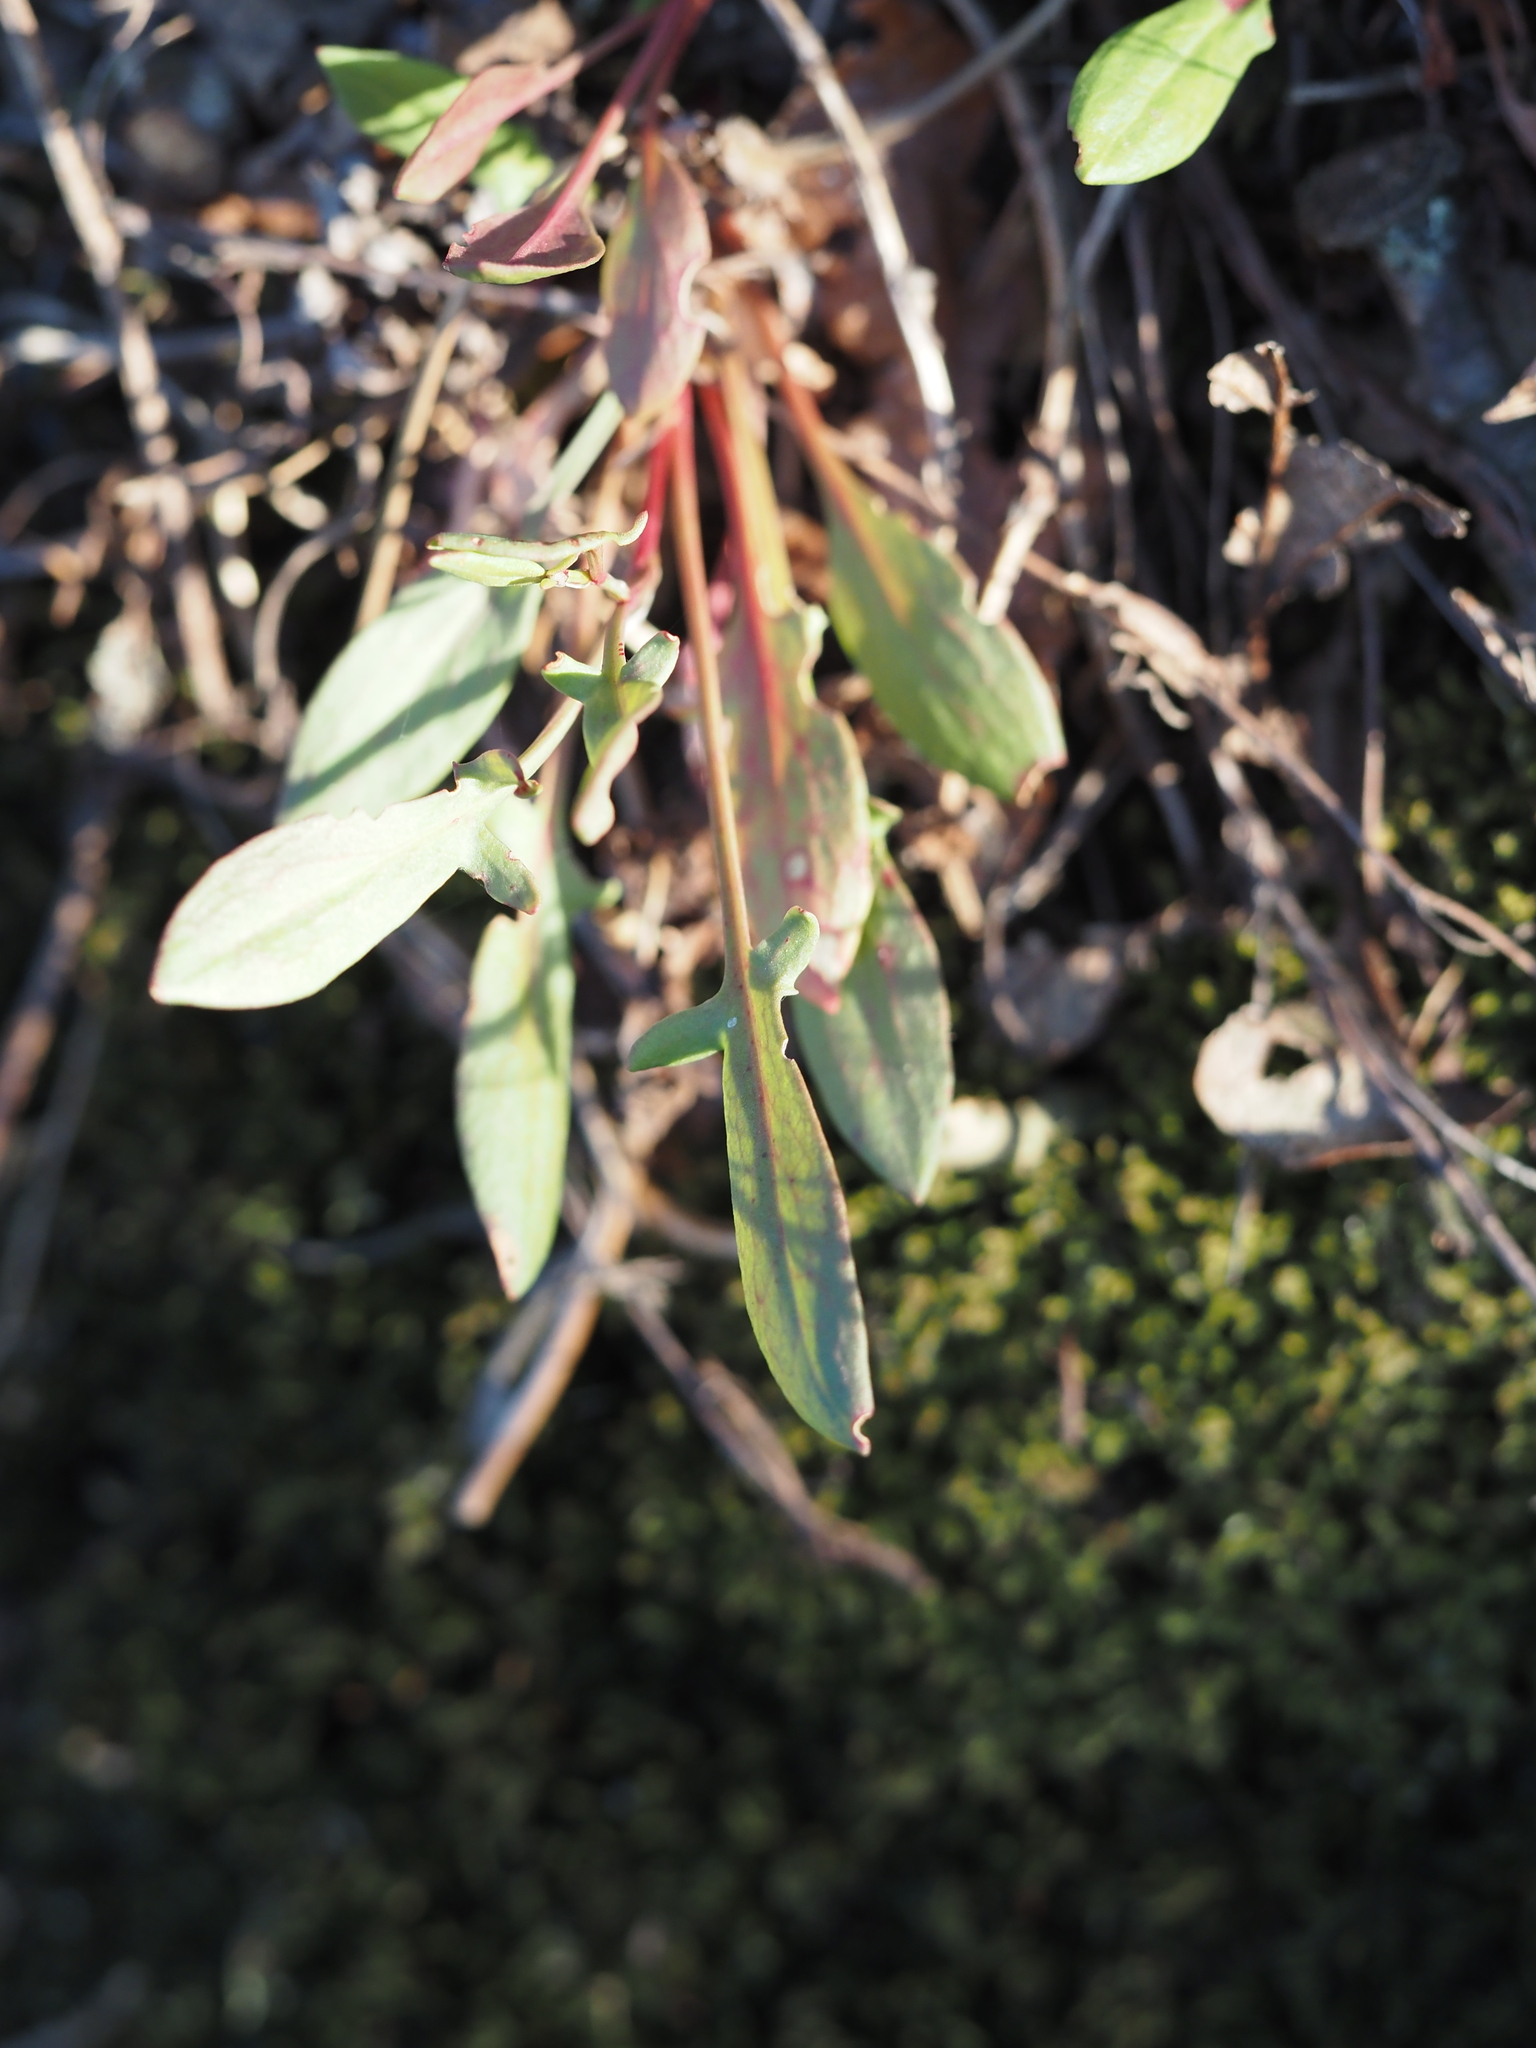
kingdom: Plantae
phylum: Tracheophyta
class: Magnoliopsida
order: Caryophyllales
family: Polygonaceae
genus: Rumex
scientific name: Rumex acetosella
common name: Common sheep sorrel
